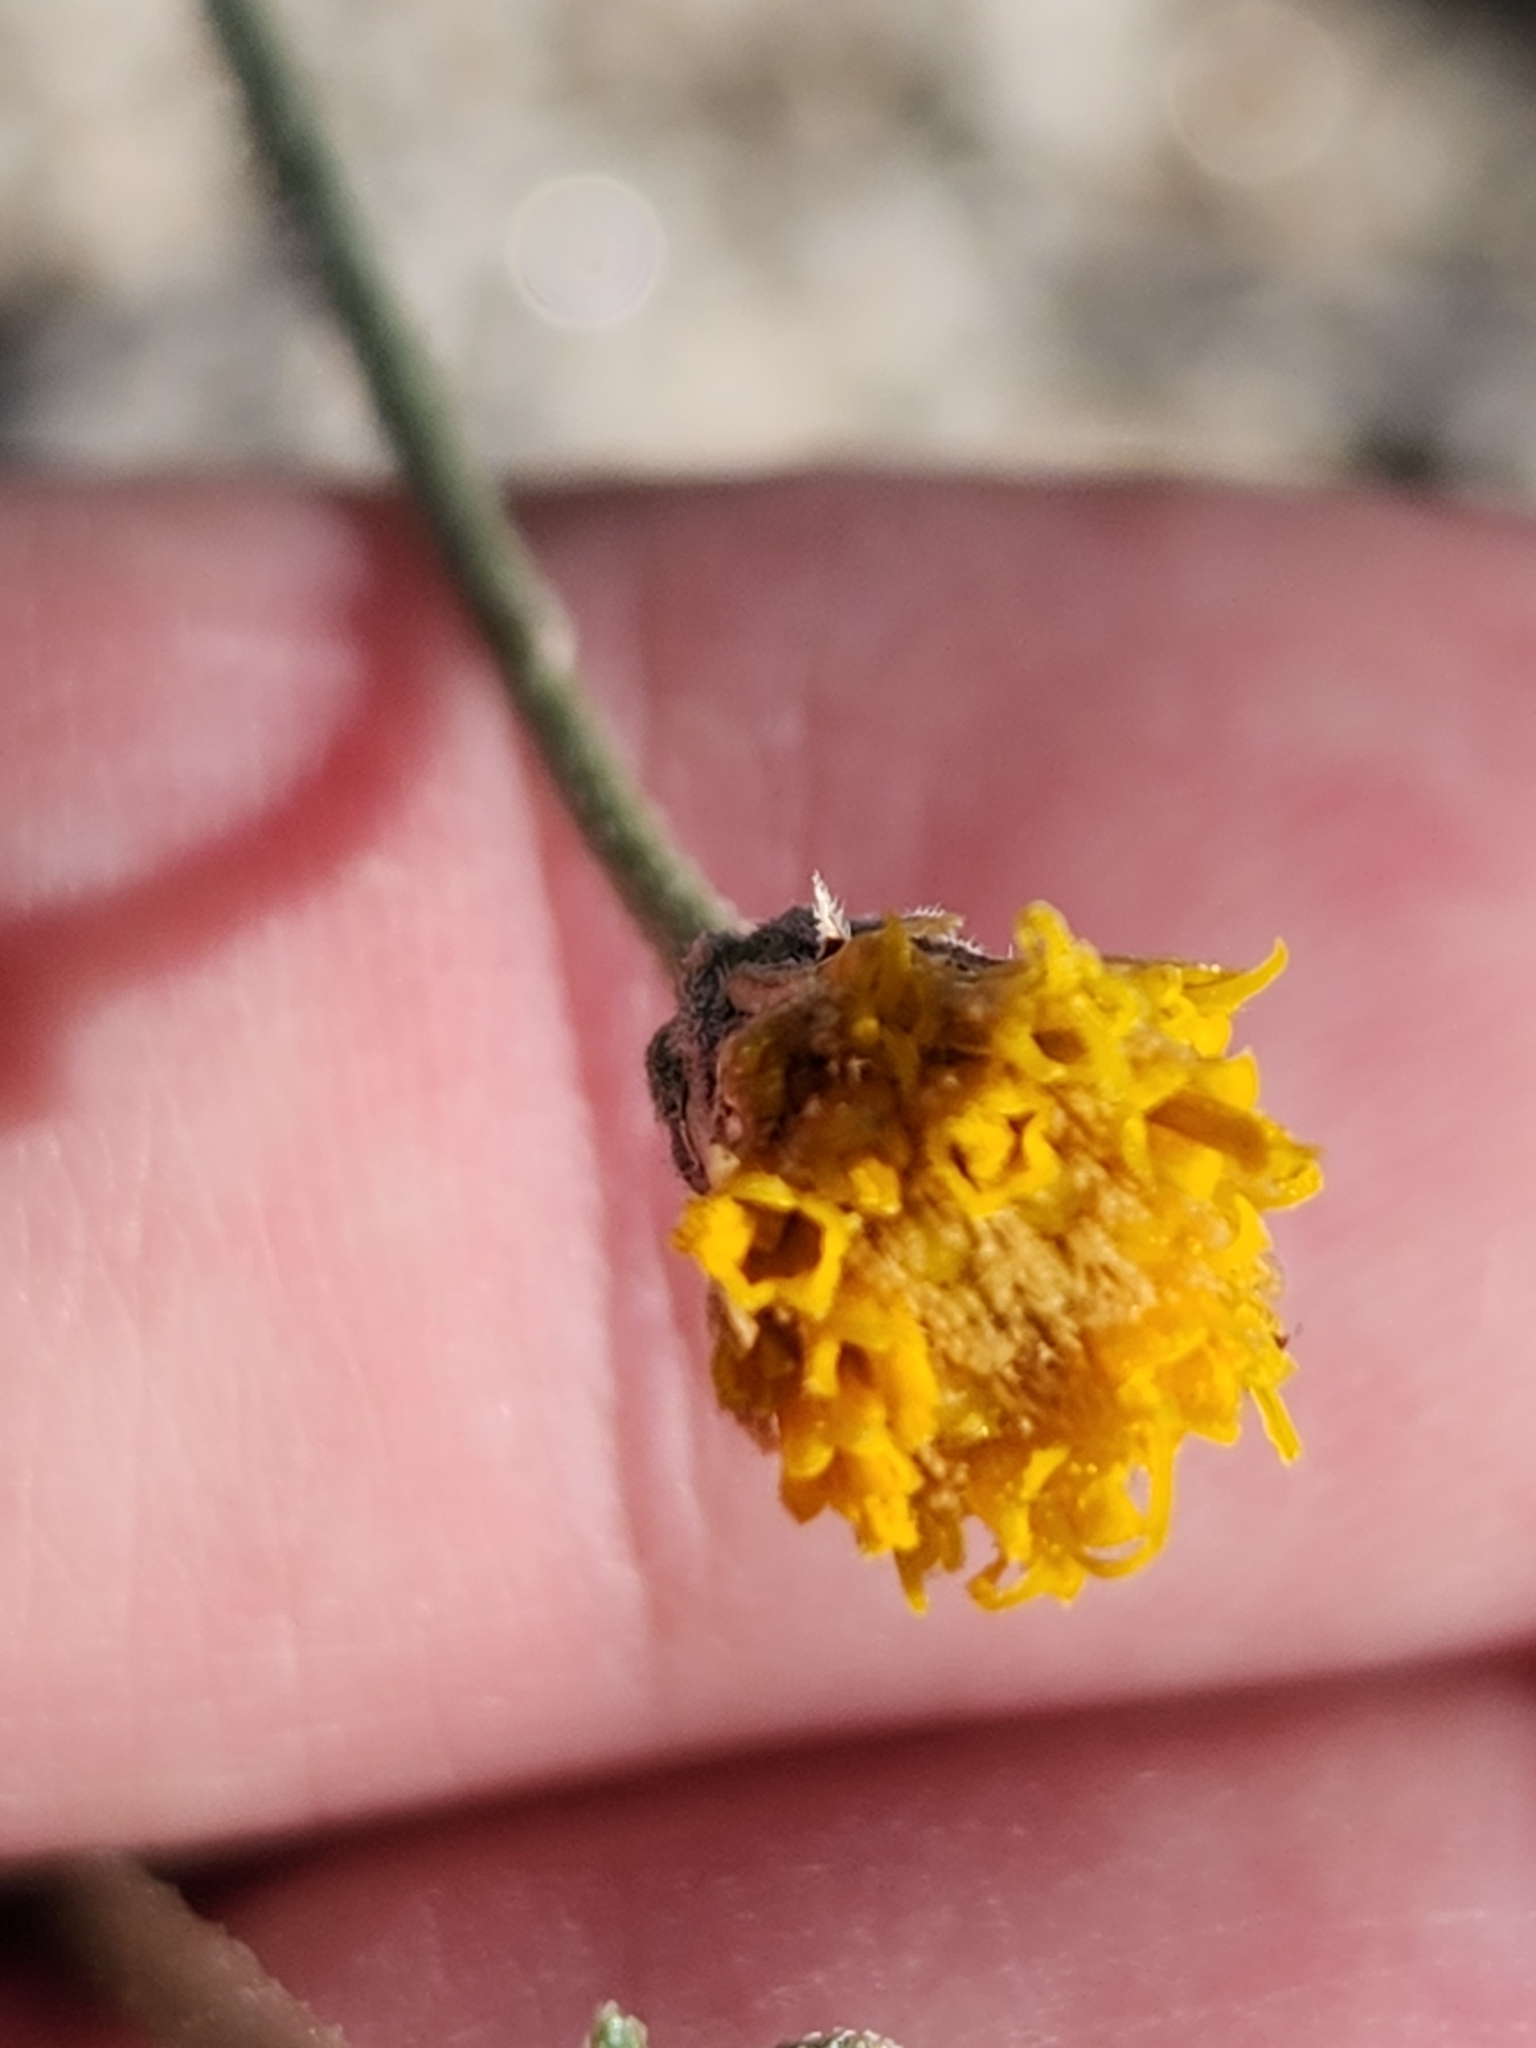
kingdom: Plantae
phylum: Tracheophyta
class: Magnoliopsida
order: Asterales
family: Asteraceae
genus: Bebbia
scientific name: Bebbia juncea
